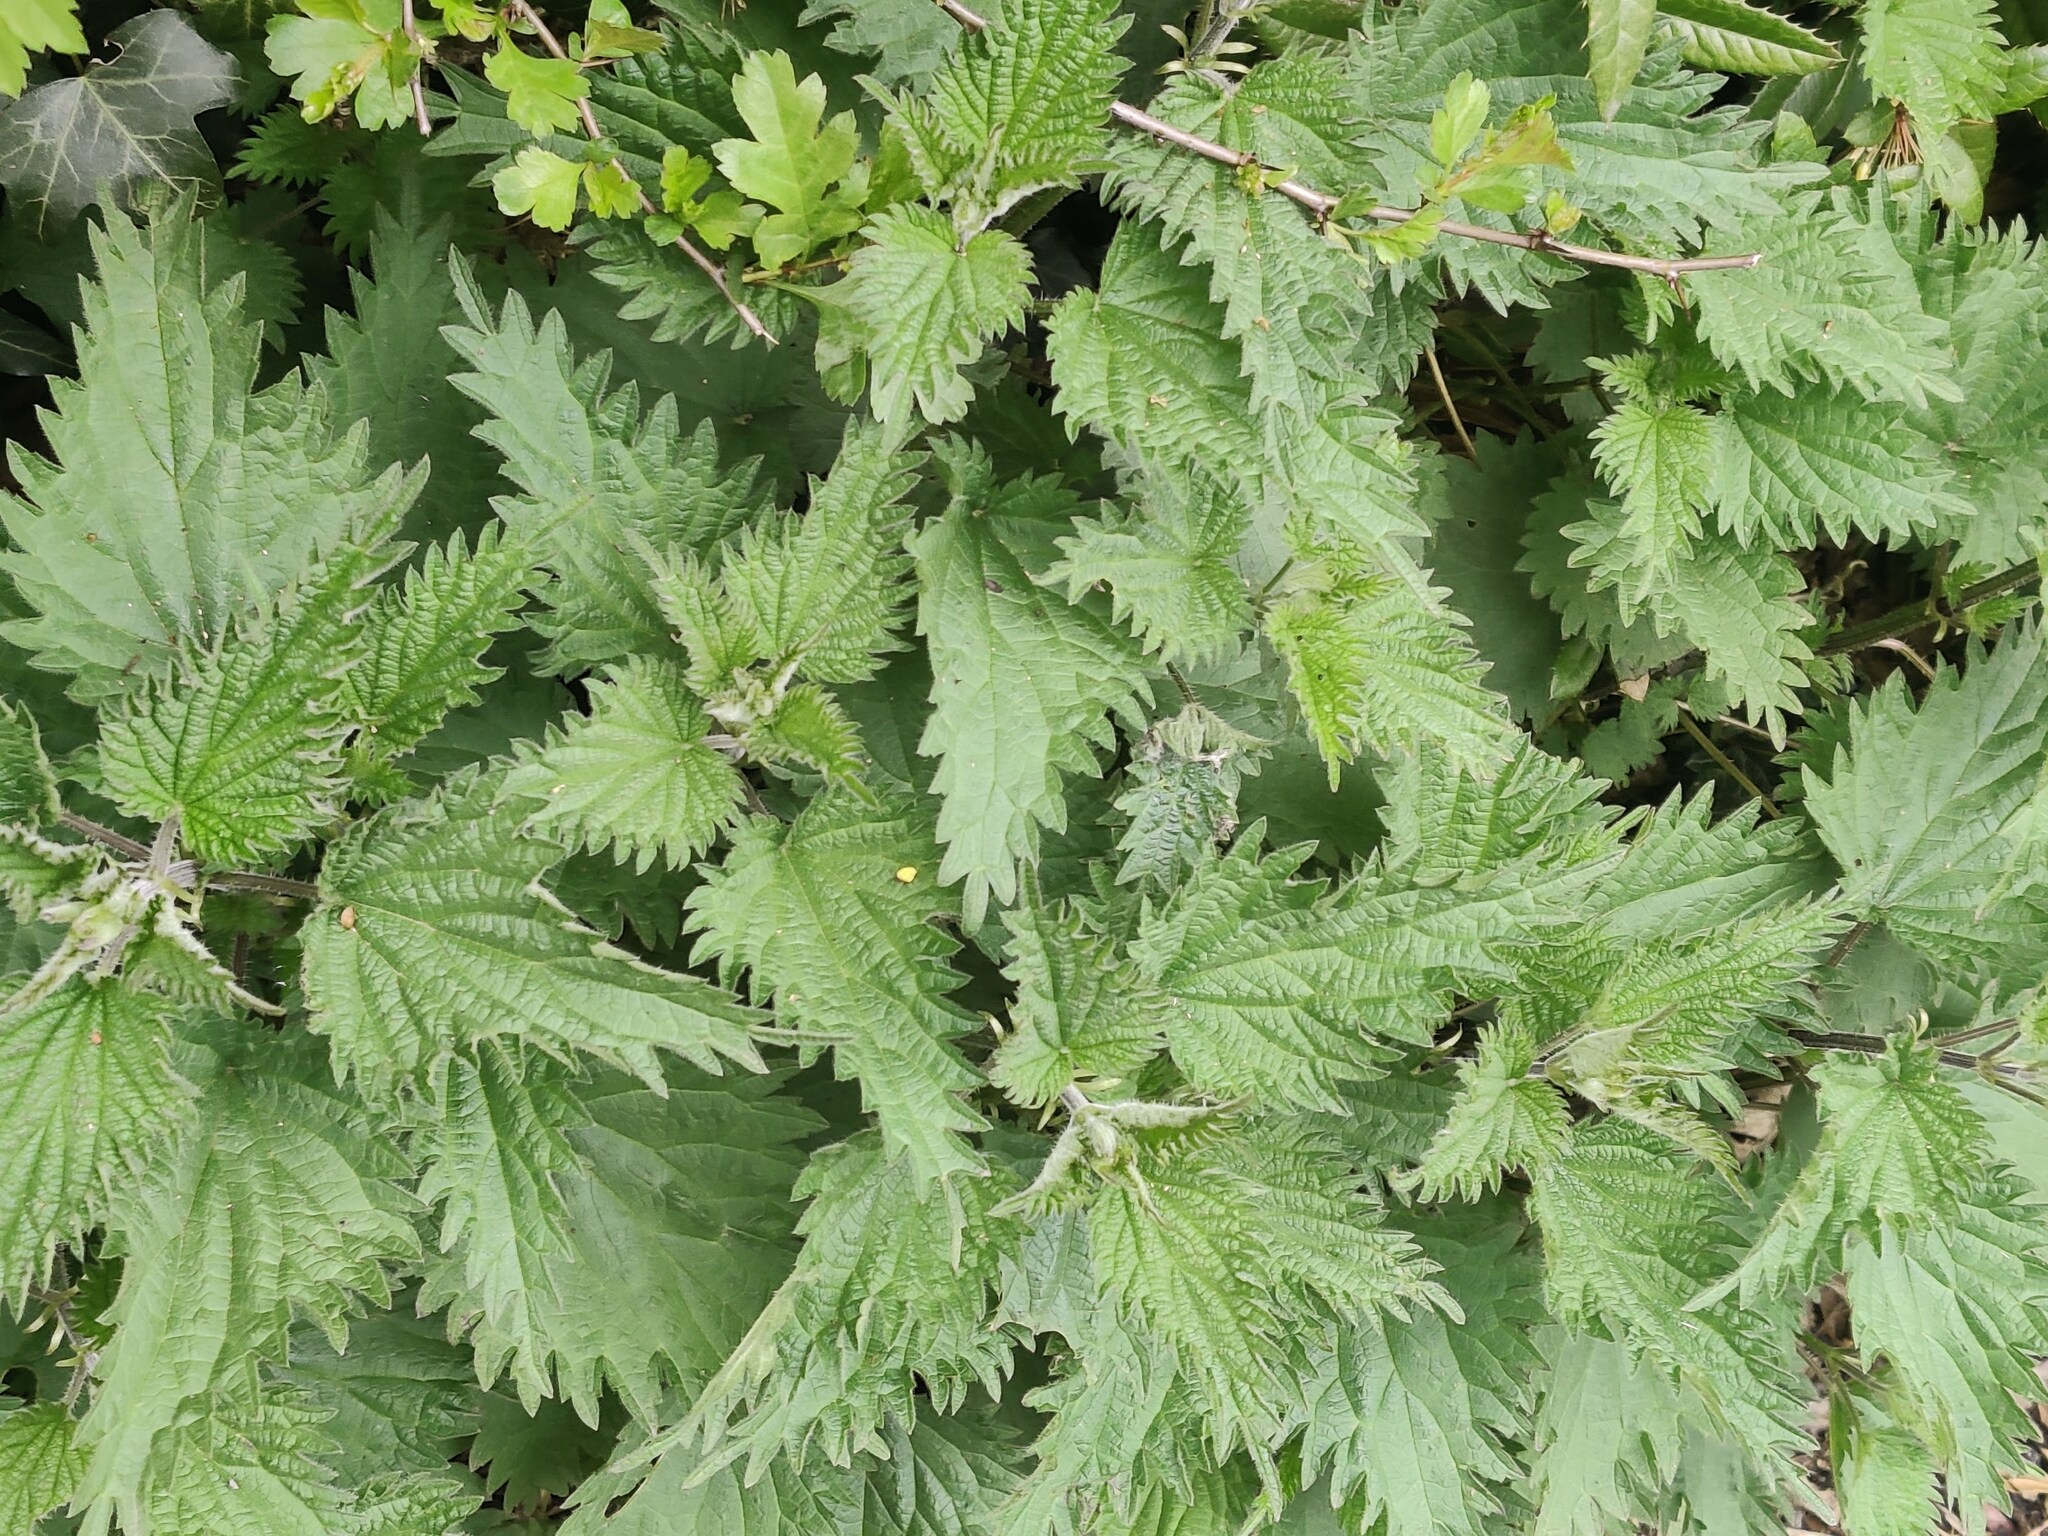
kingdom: Plantae
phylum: Tracheophyta
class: Magnoliopsida
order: Rosales
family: Urticaceae
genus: Urtica
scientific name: Urtica dioica
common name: Common nettle
